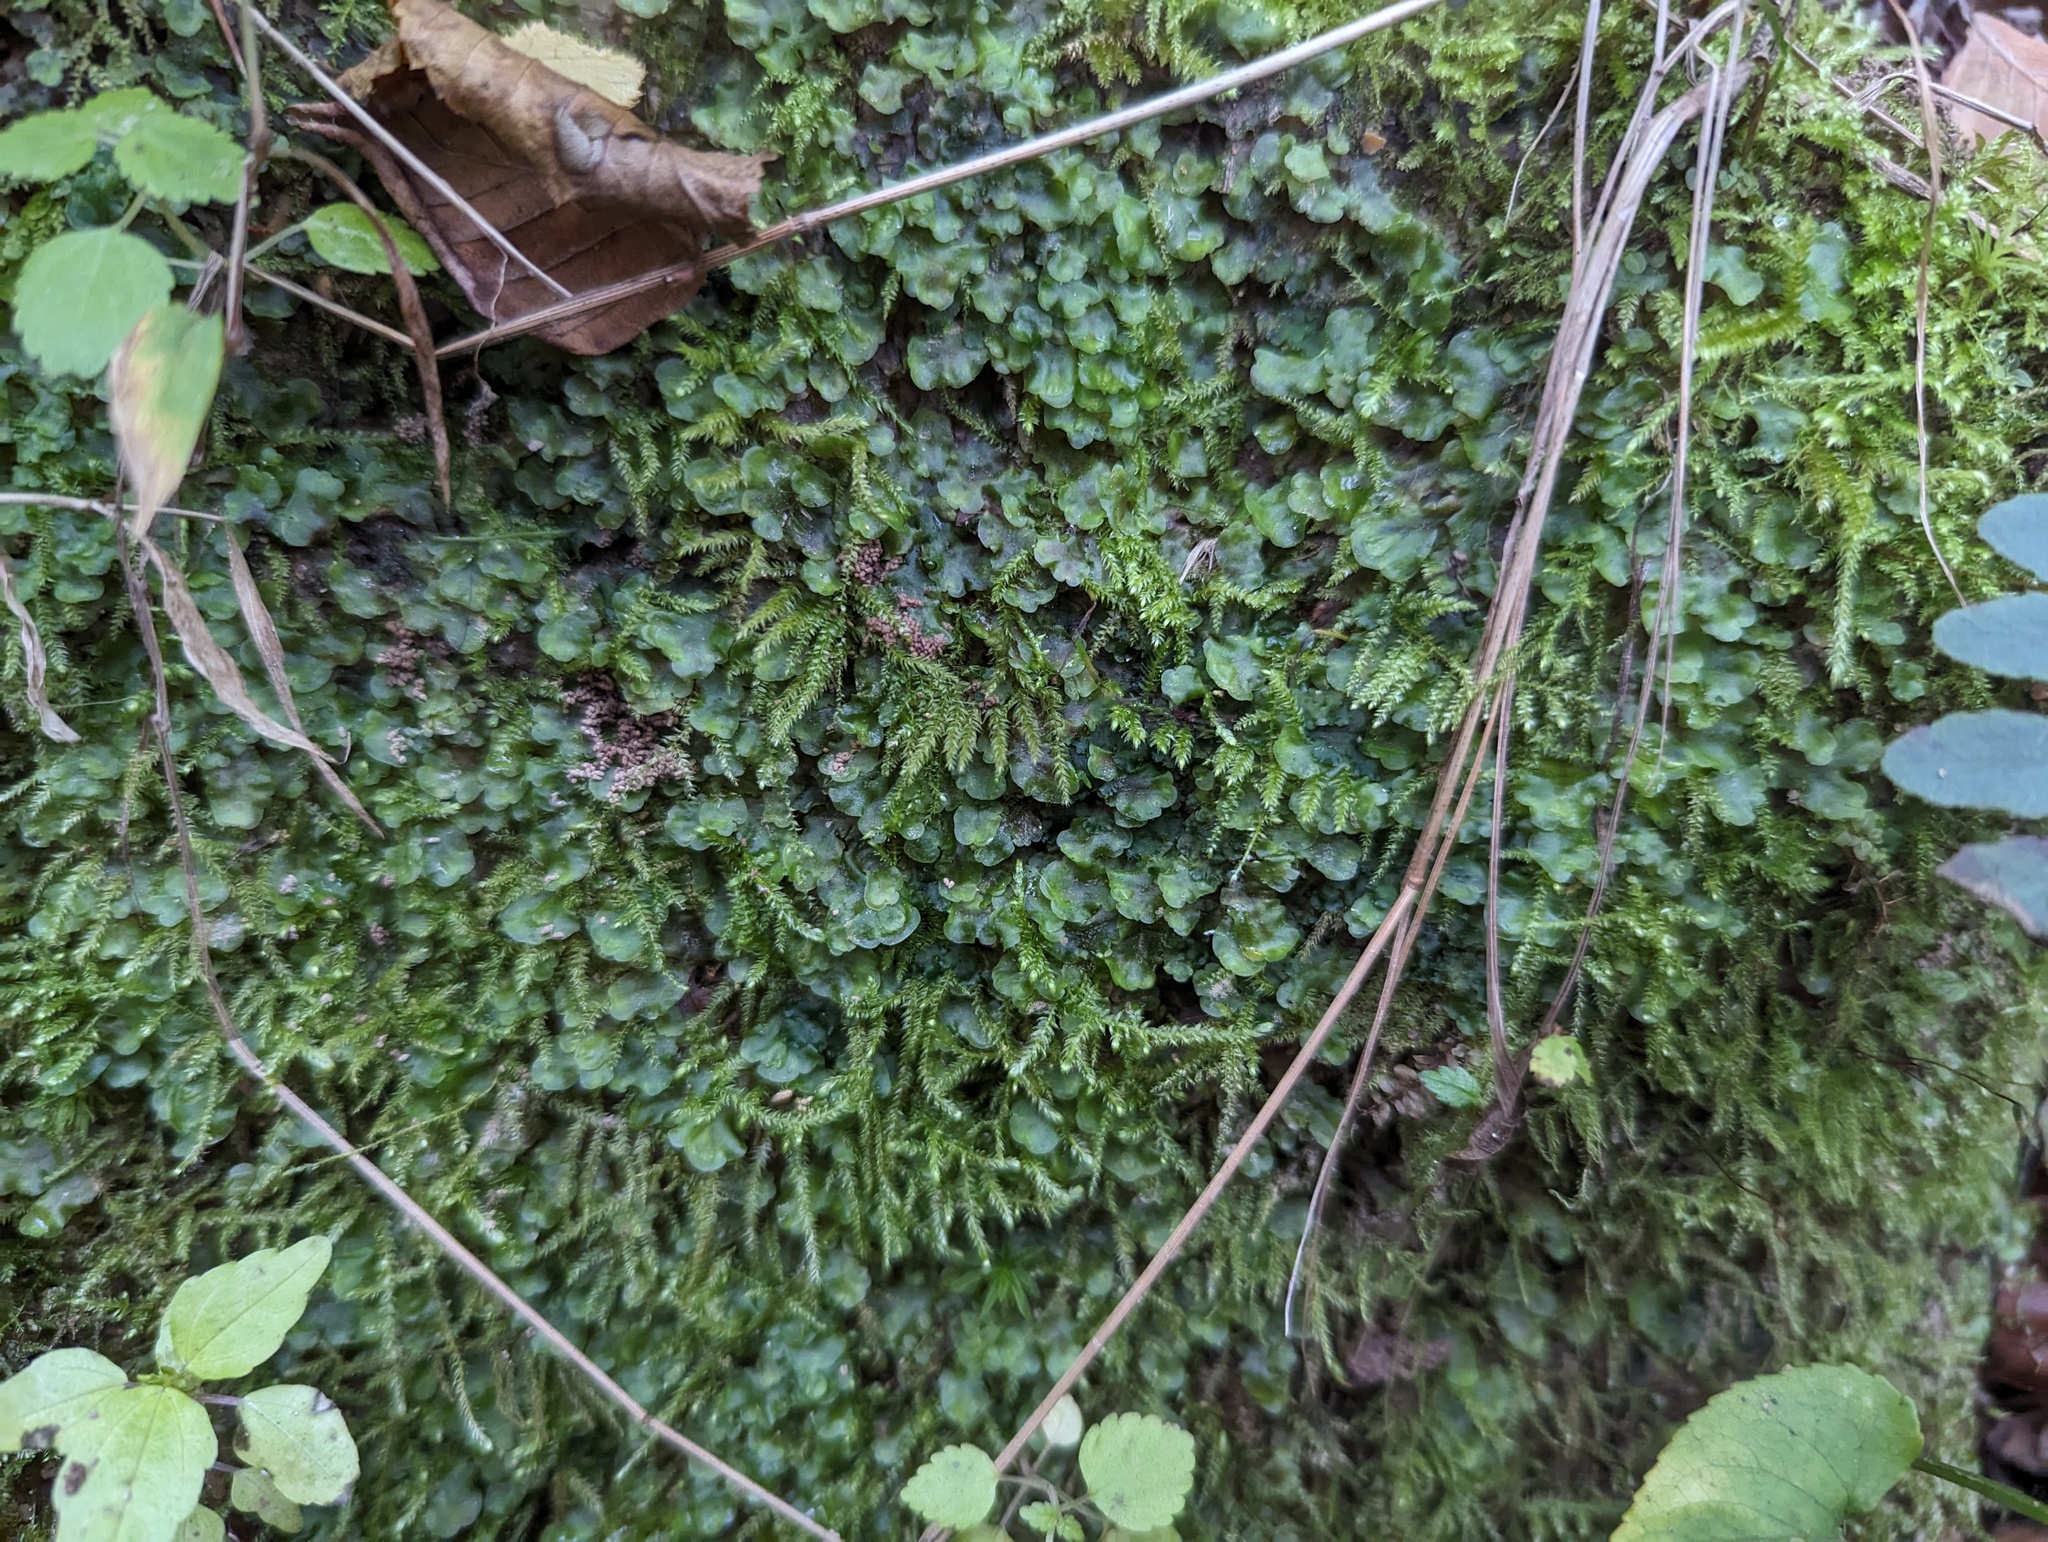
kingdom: Plantae
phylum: Marchantiophyta
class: Jungermanniopsida
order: Pelliales
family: Pelliaceae
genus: Pellia
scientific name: Pellia epiphylla
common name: Common pellia
